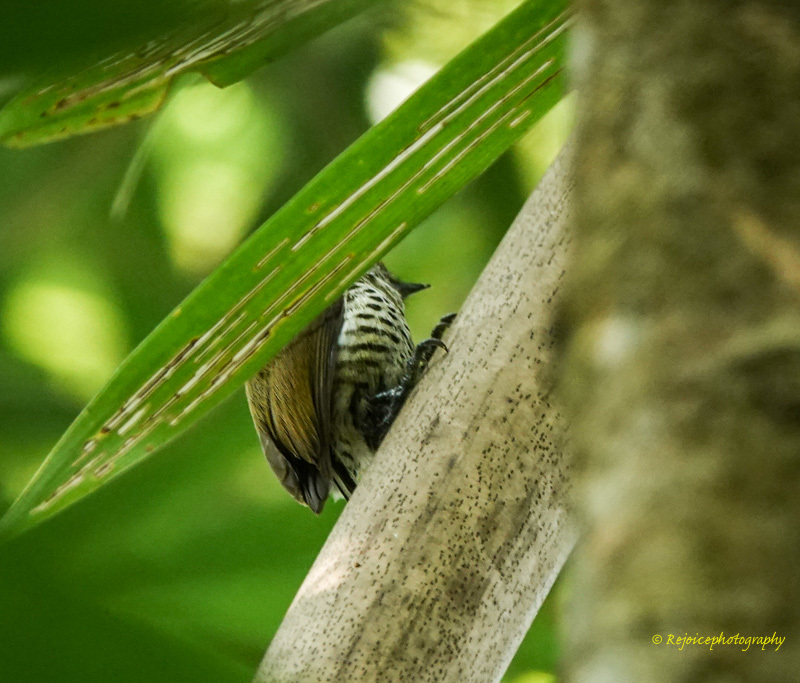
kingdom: Animalia
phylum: Chordata
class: Aves
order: Piciformes
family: Picidae
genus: Picumnus
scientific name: Picumnus innominatus
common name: Speckled piculet
